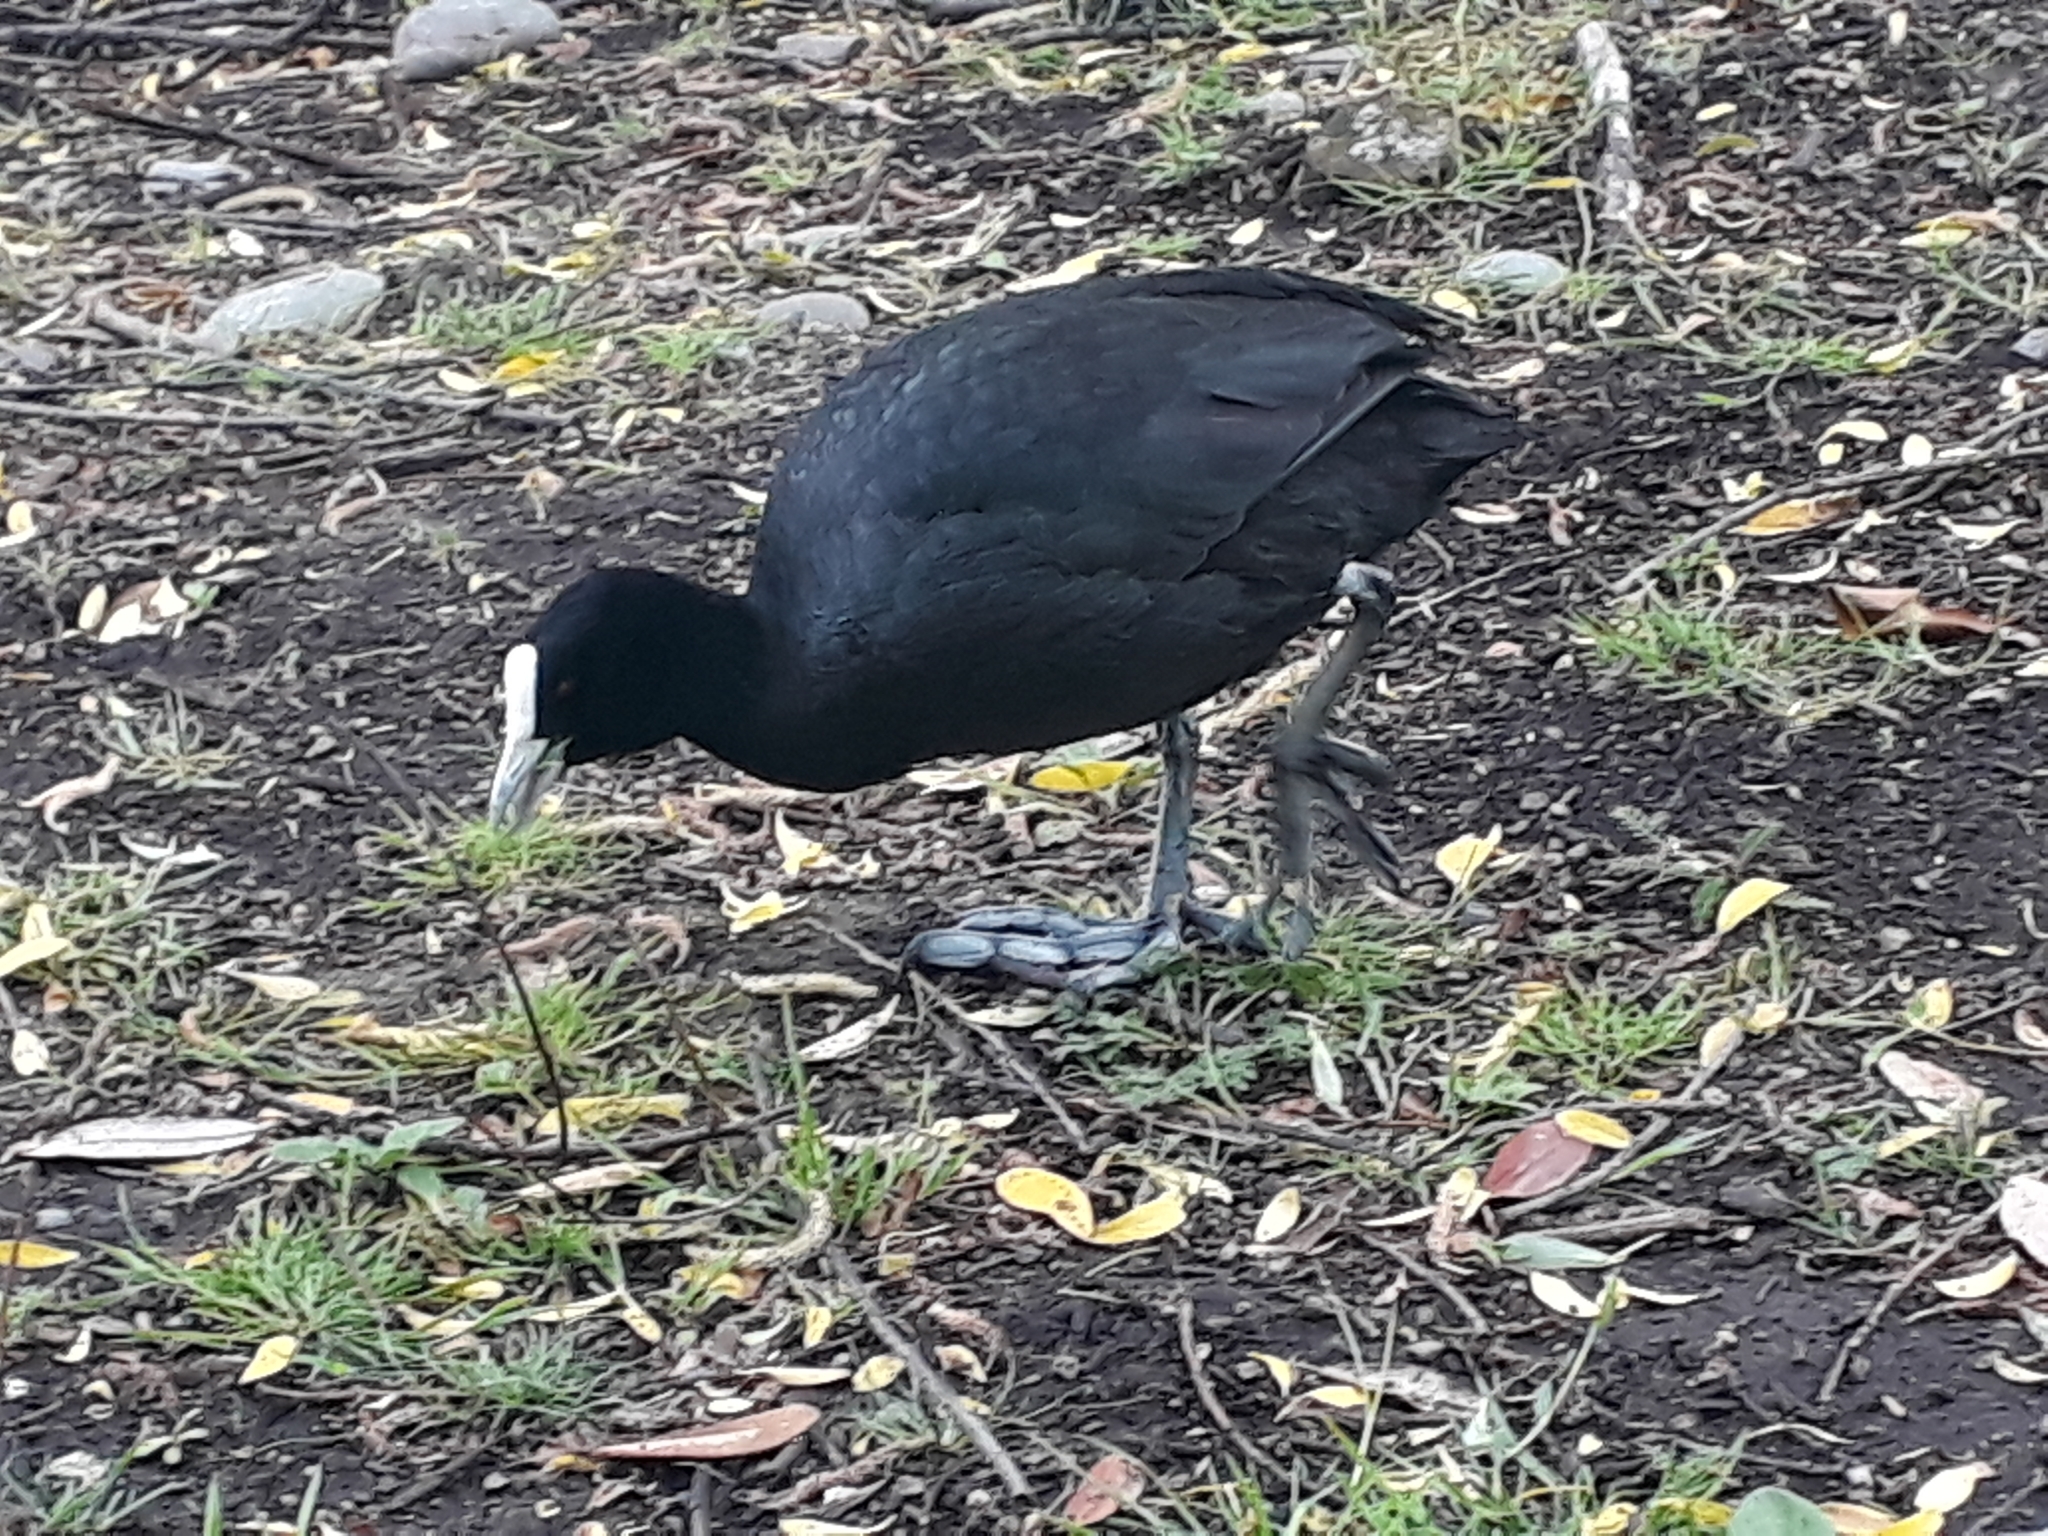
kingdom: Animalia
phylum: Chordata
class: Aves
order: Gruiformes
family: Rallidae
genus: Fulica
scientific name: Fulica atra
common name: Eurasian coot
